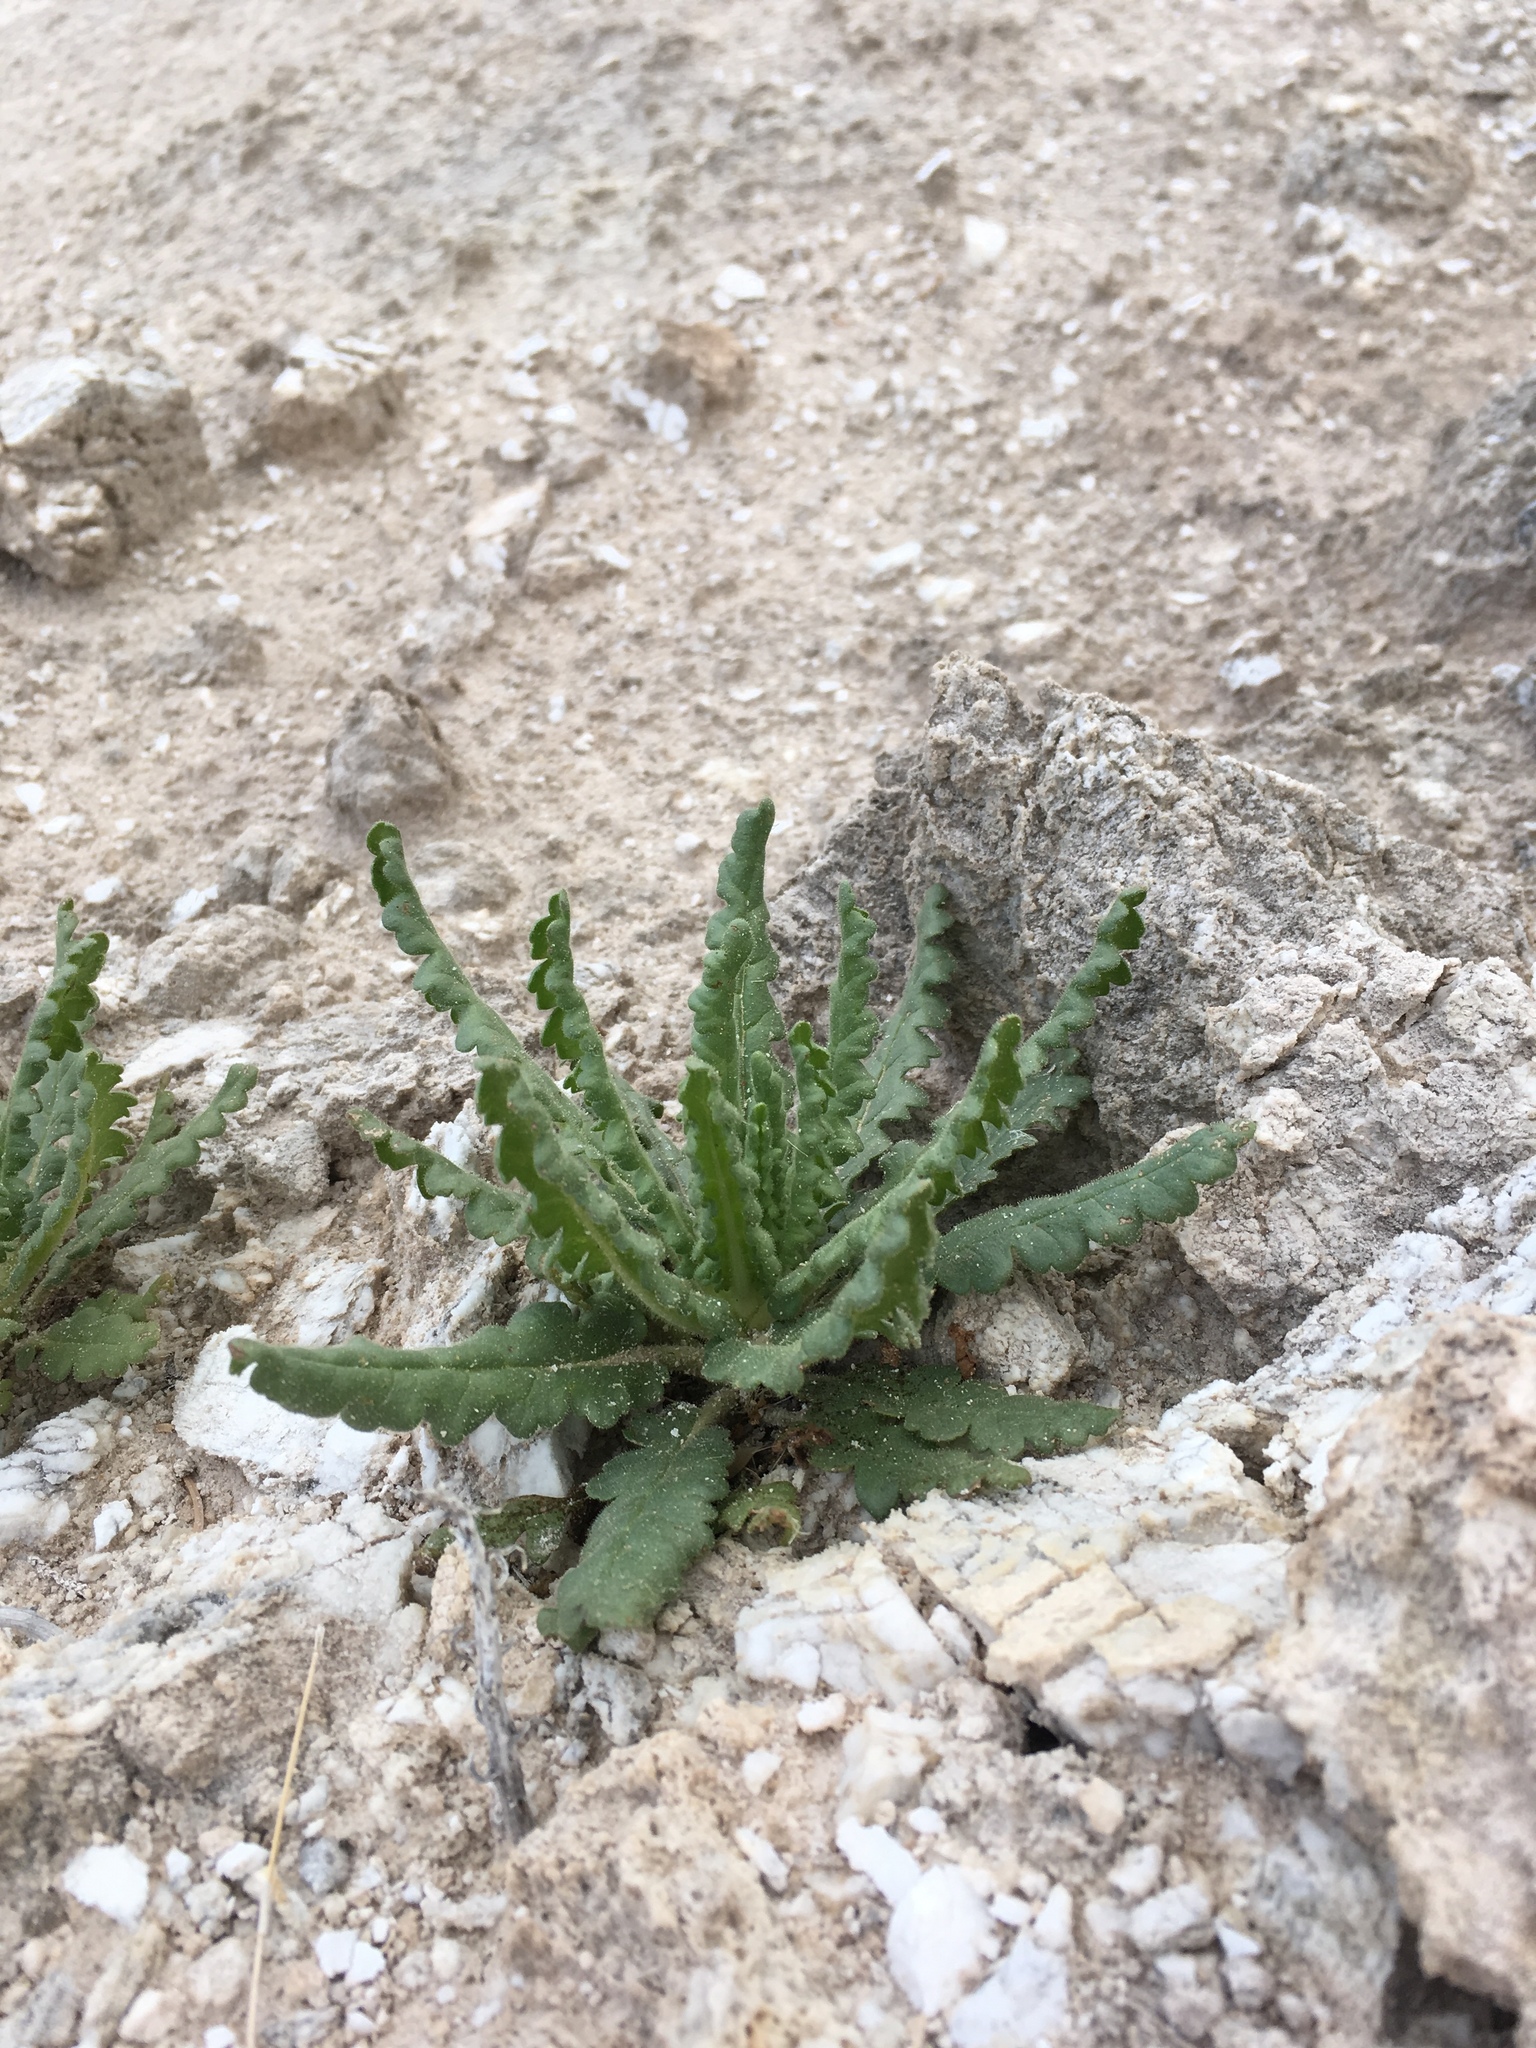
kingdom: Plantae
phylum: Tracheophyta
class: Magnoliopsida
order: Boraginales
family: Hydrophyllaceae
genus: Phacelia
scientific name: Phacelia sivinskii
